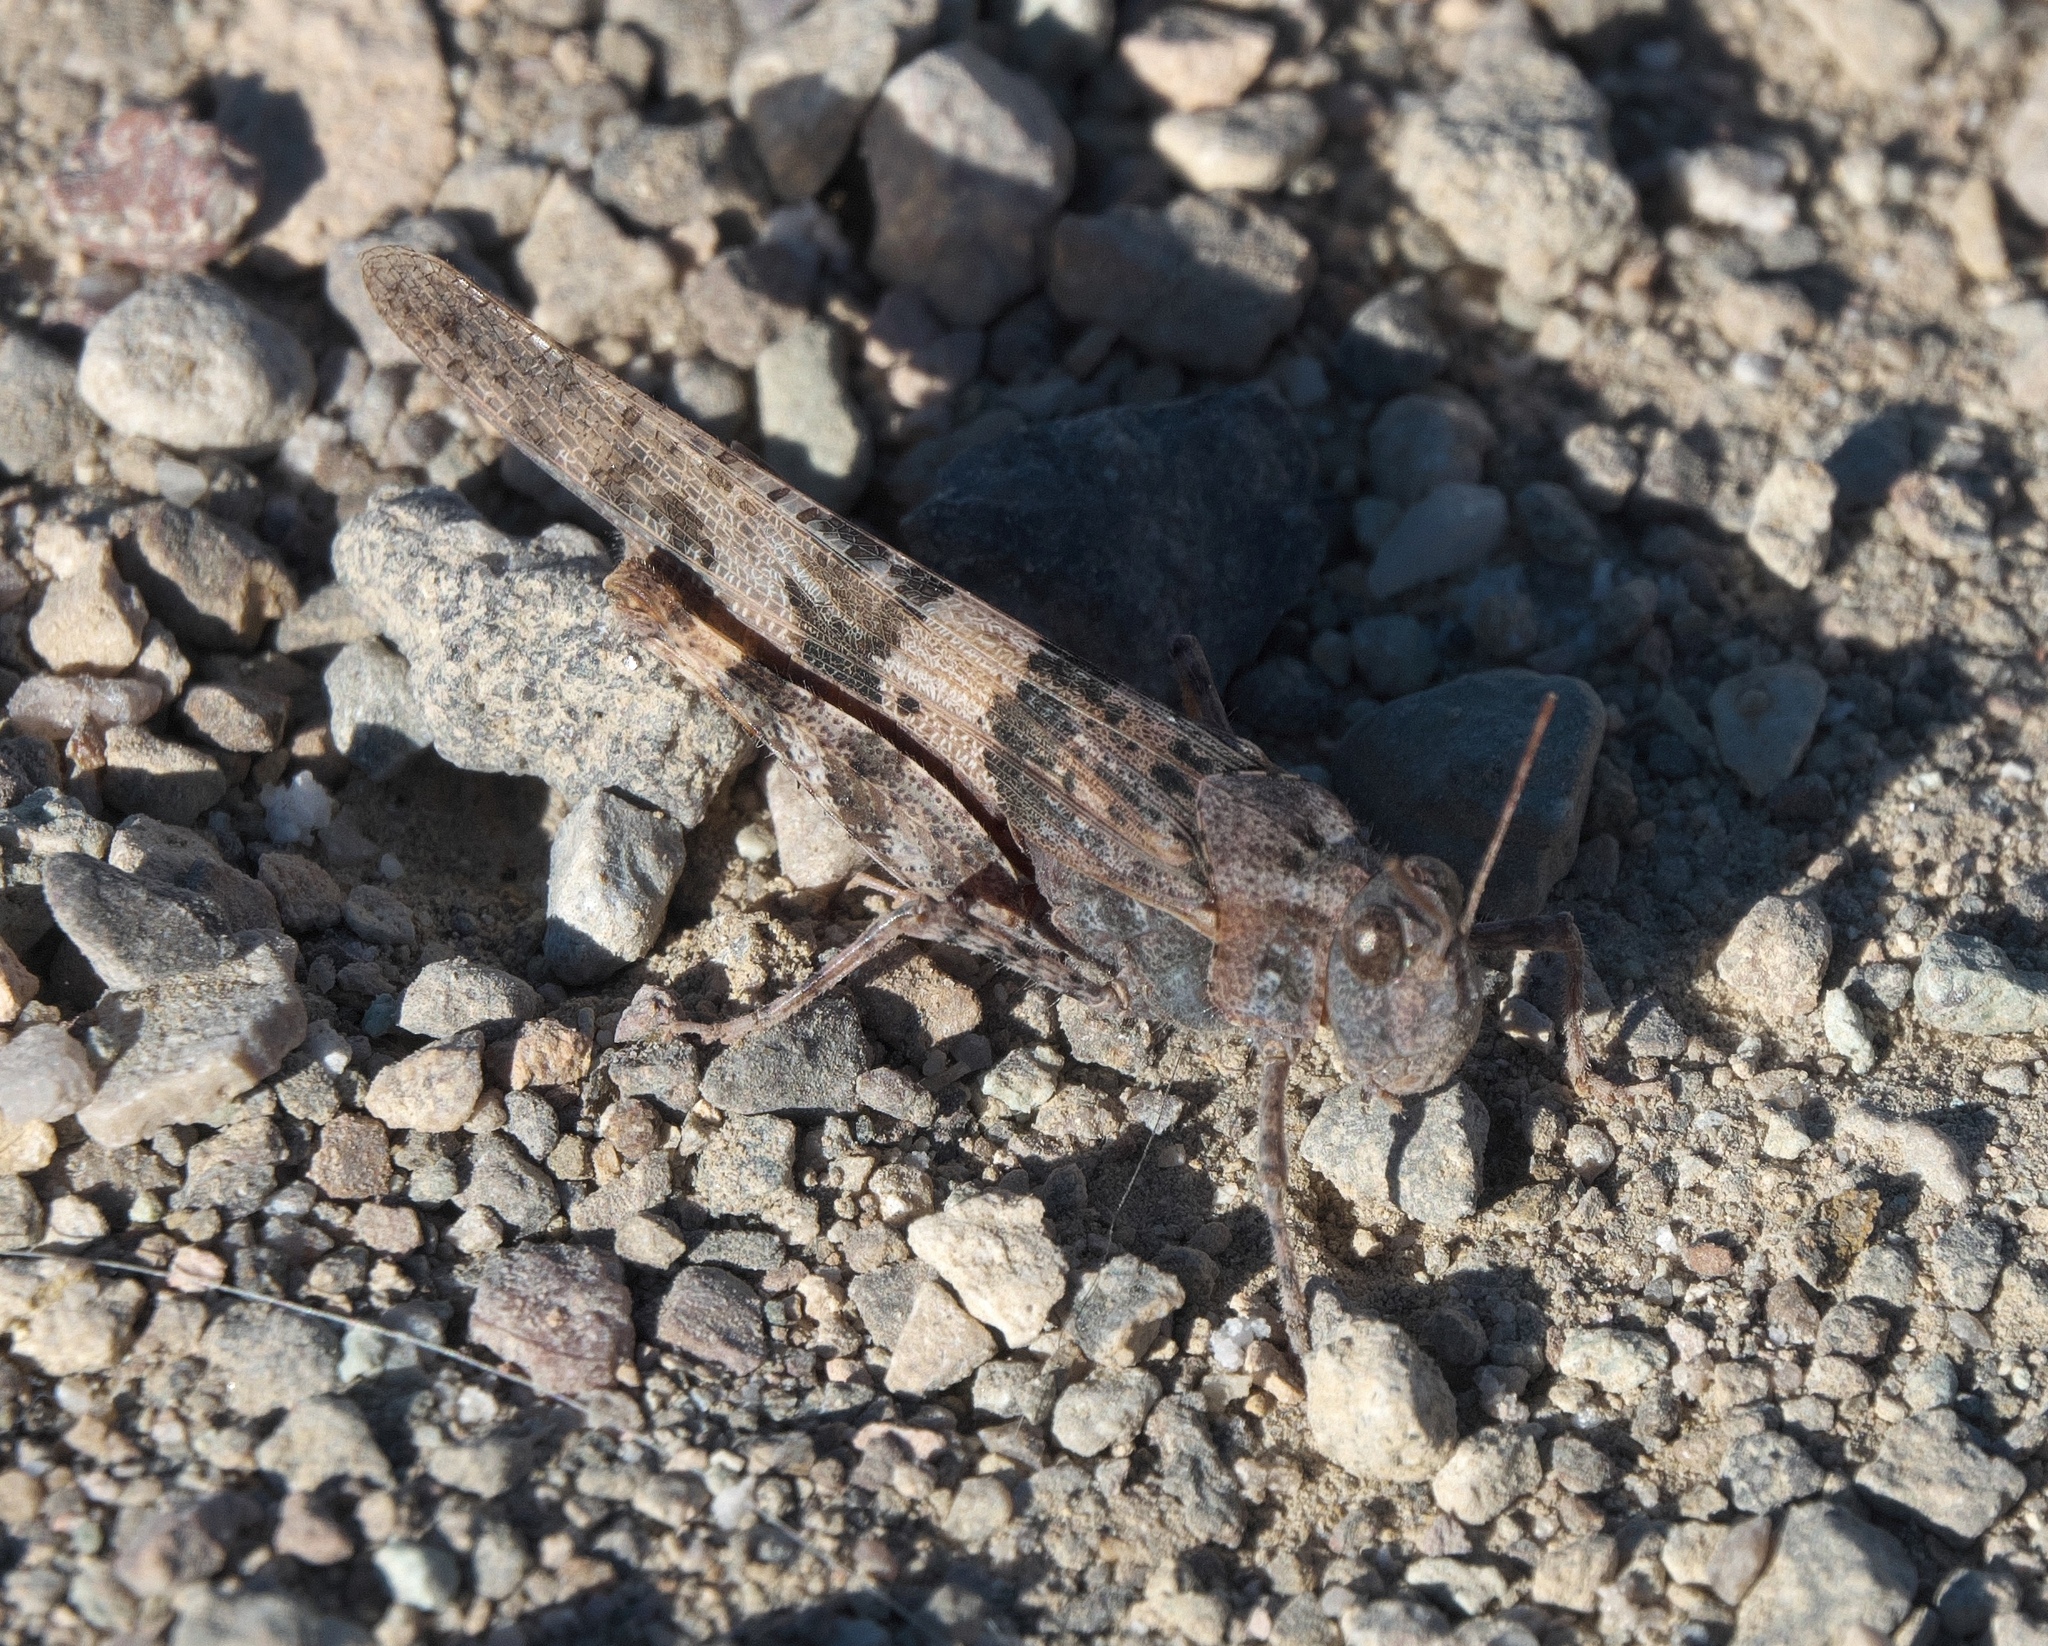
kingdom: Animalia
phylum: Arthropoda
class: Insecta
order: Orthoptera
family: Acrididae
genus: Trimerotropis
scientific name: Trimerotropis pallidipennis
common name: Pallid-winged grasshopper
